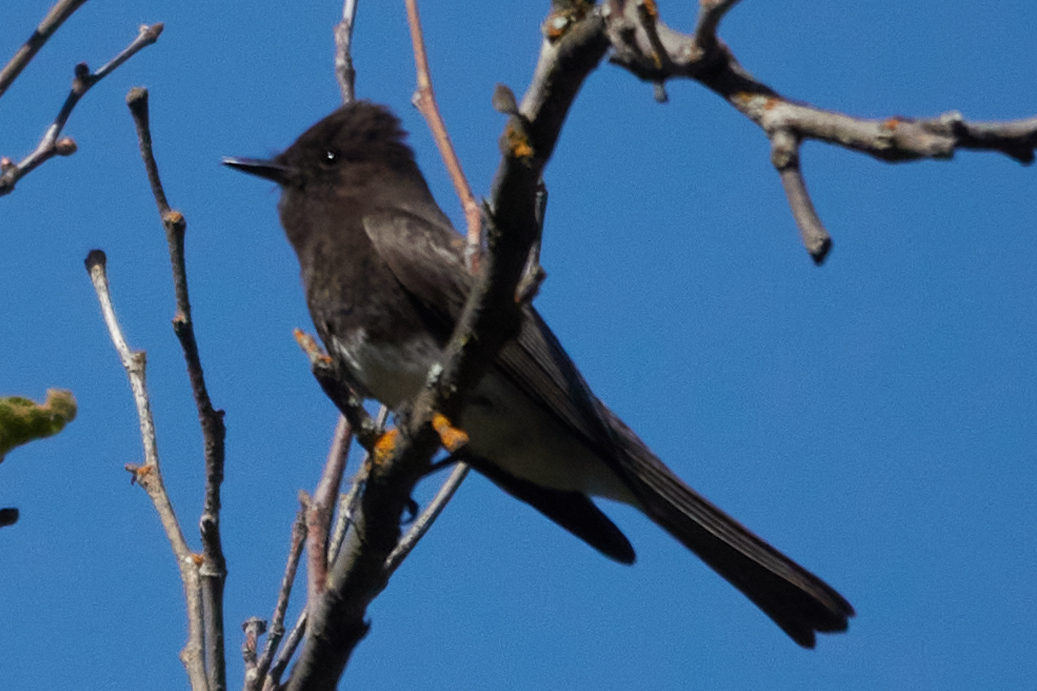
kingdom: Animalia
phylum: Chordata
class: Aves
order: Passeriformes
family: Tyrannidae
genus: Sayornis
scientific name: Sayornis nigricans
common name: Black phoebe
